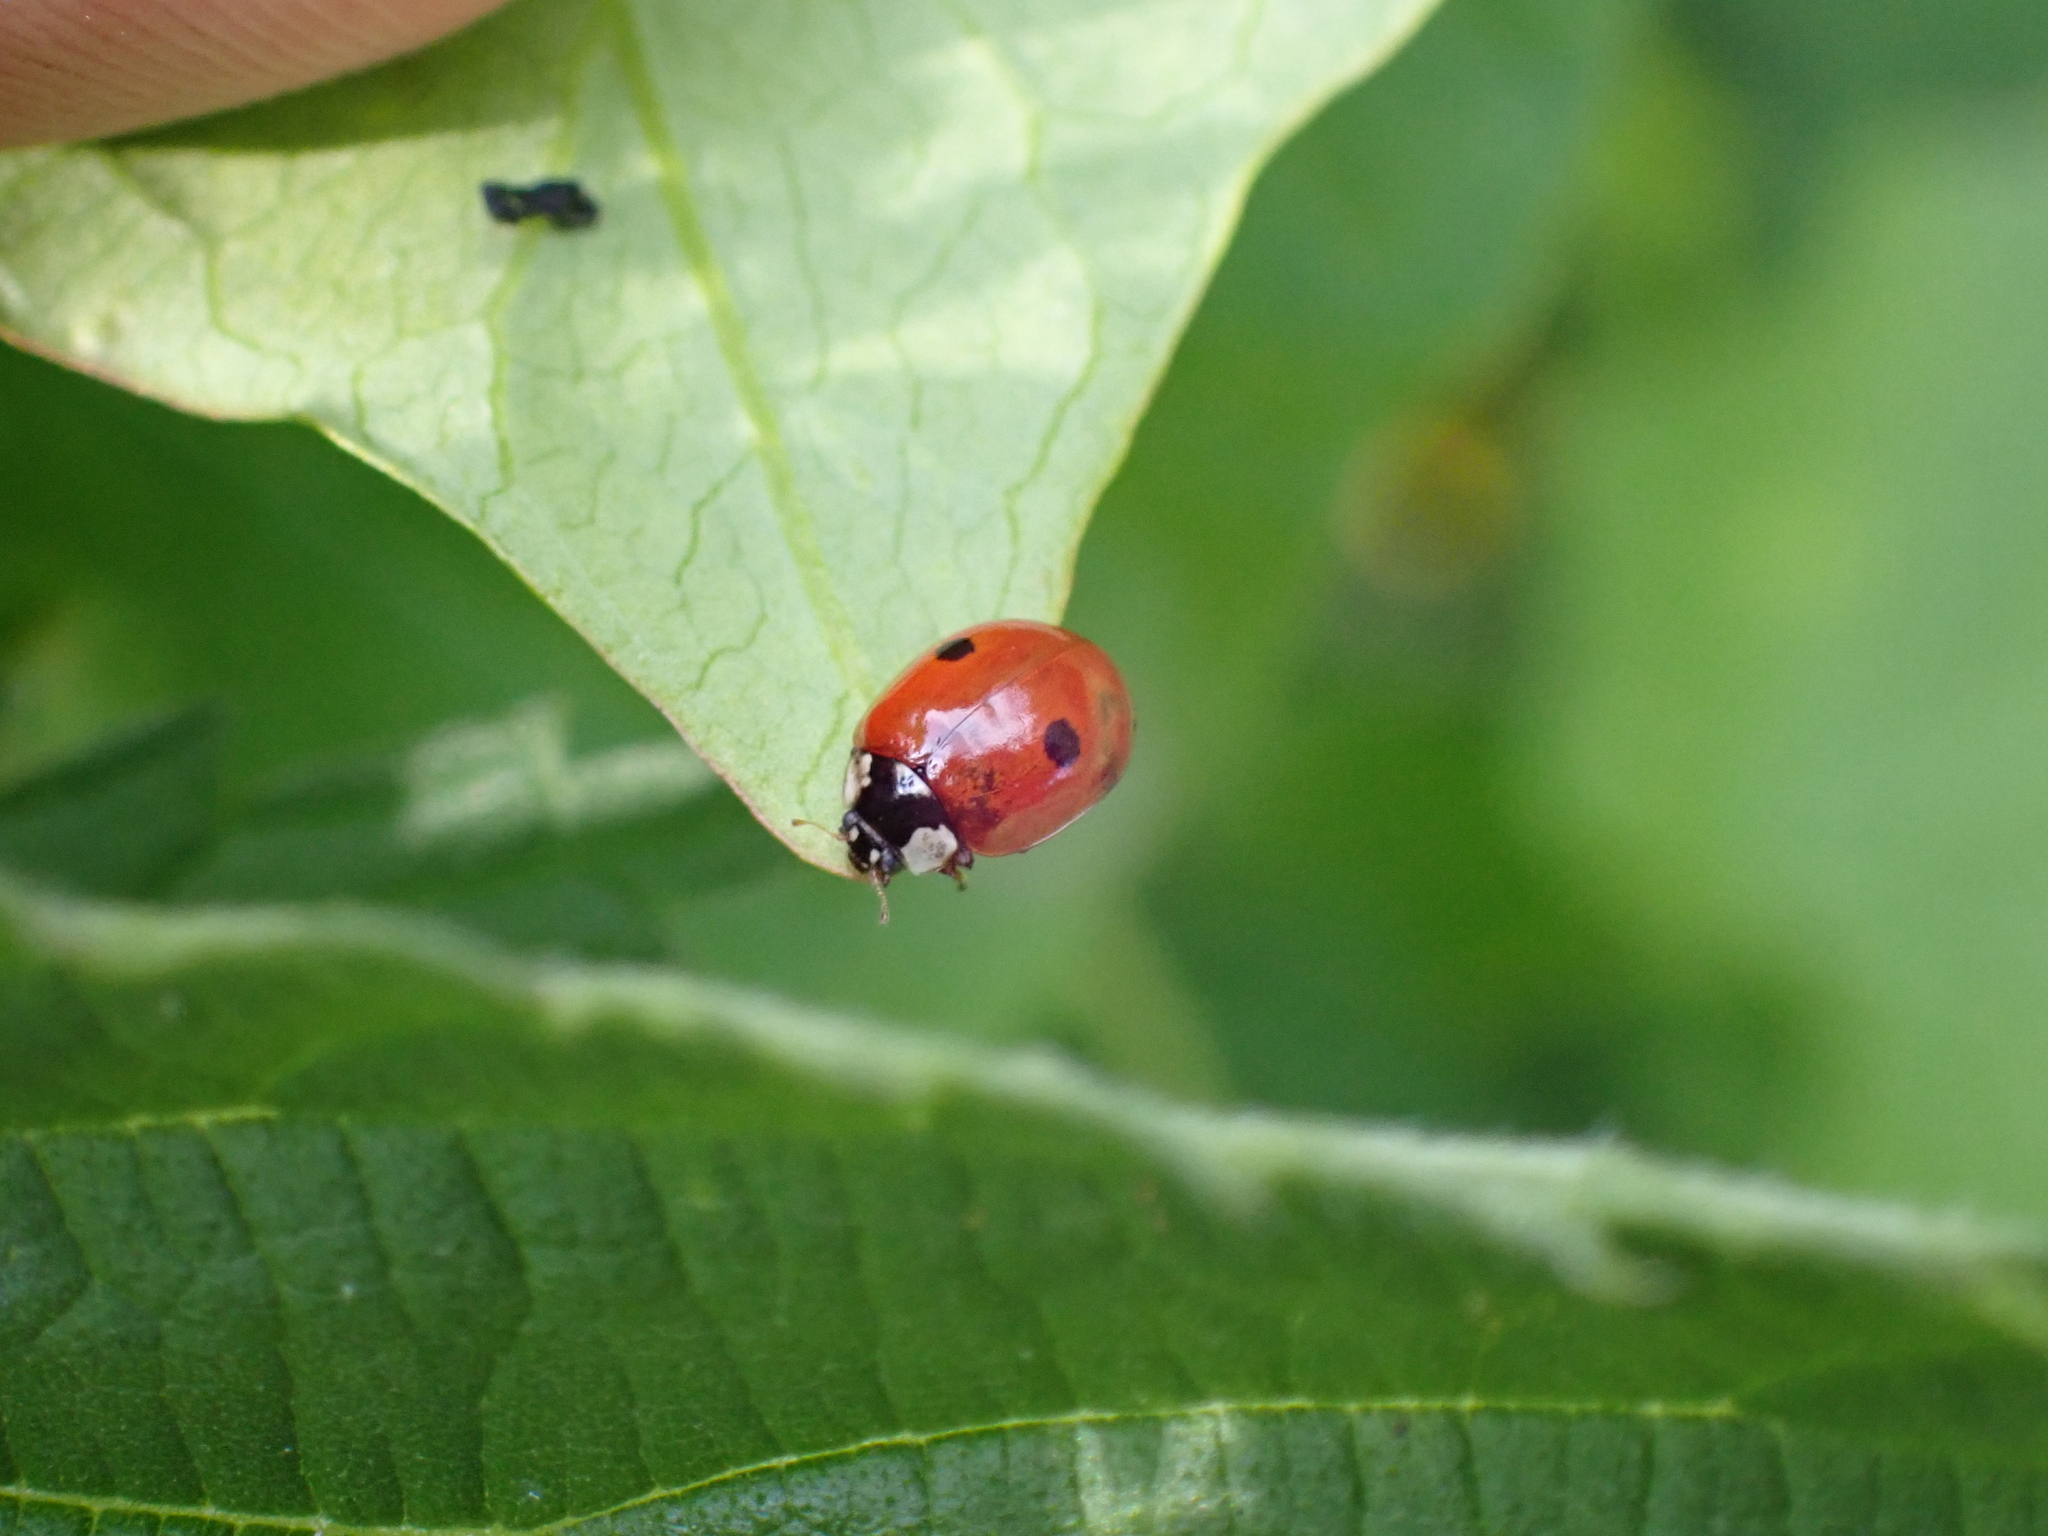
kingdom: Animalia
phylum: Arthropoda
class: Insecta
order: Coleoptera
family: Coccinellidae
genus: Adalia
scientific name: Adalia bipunctata
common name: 2-spot ladybird
